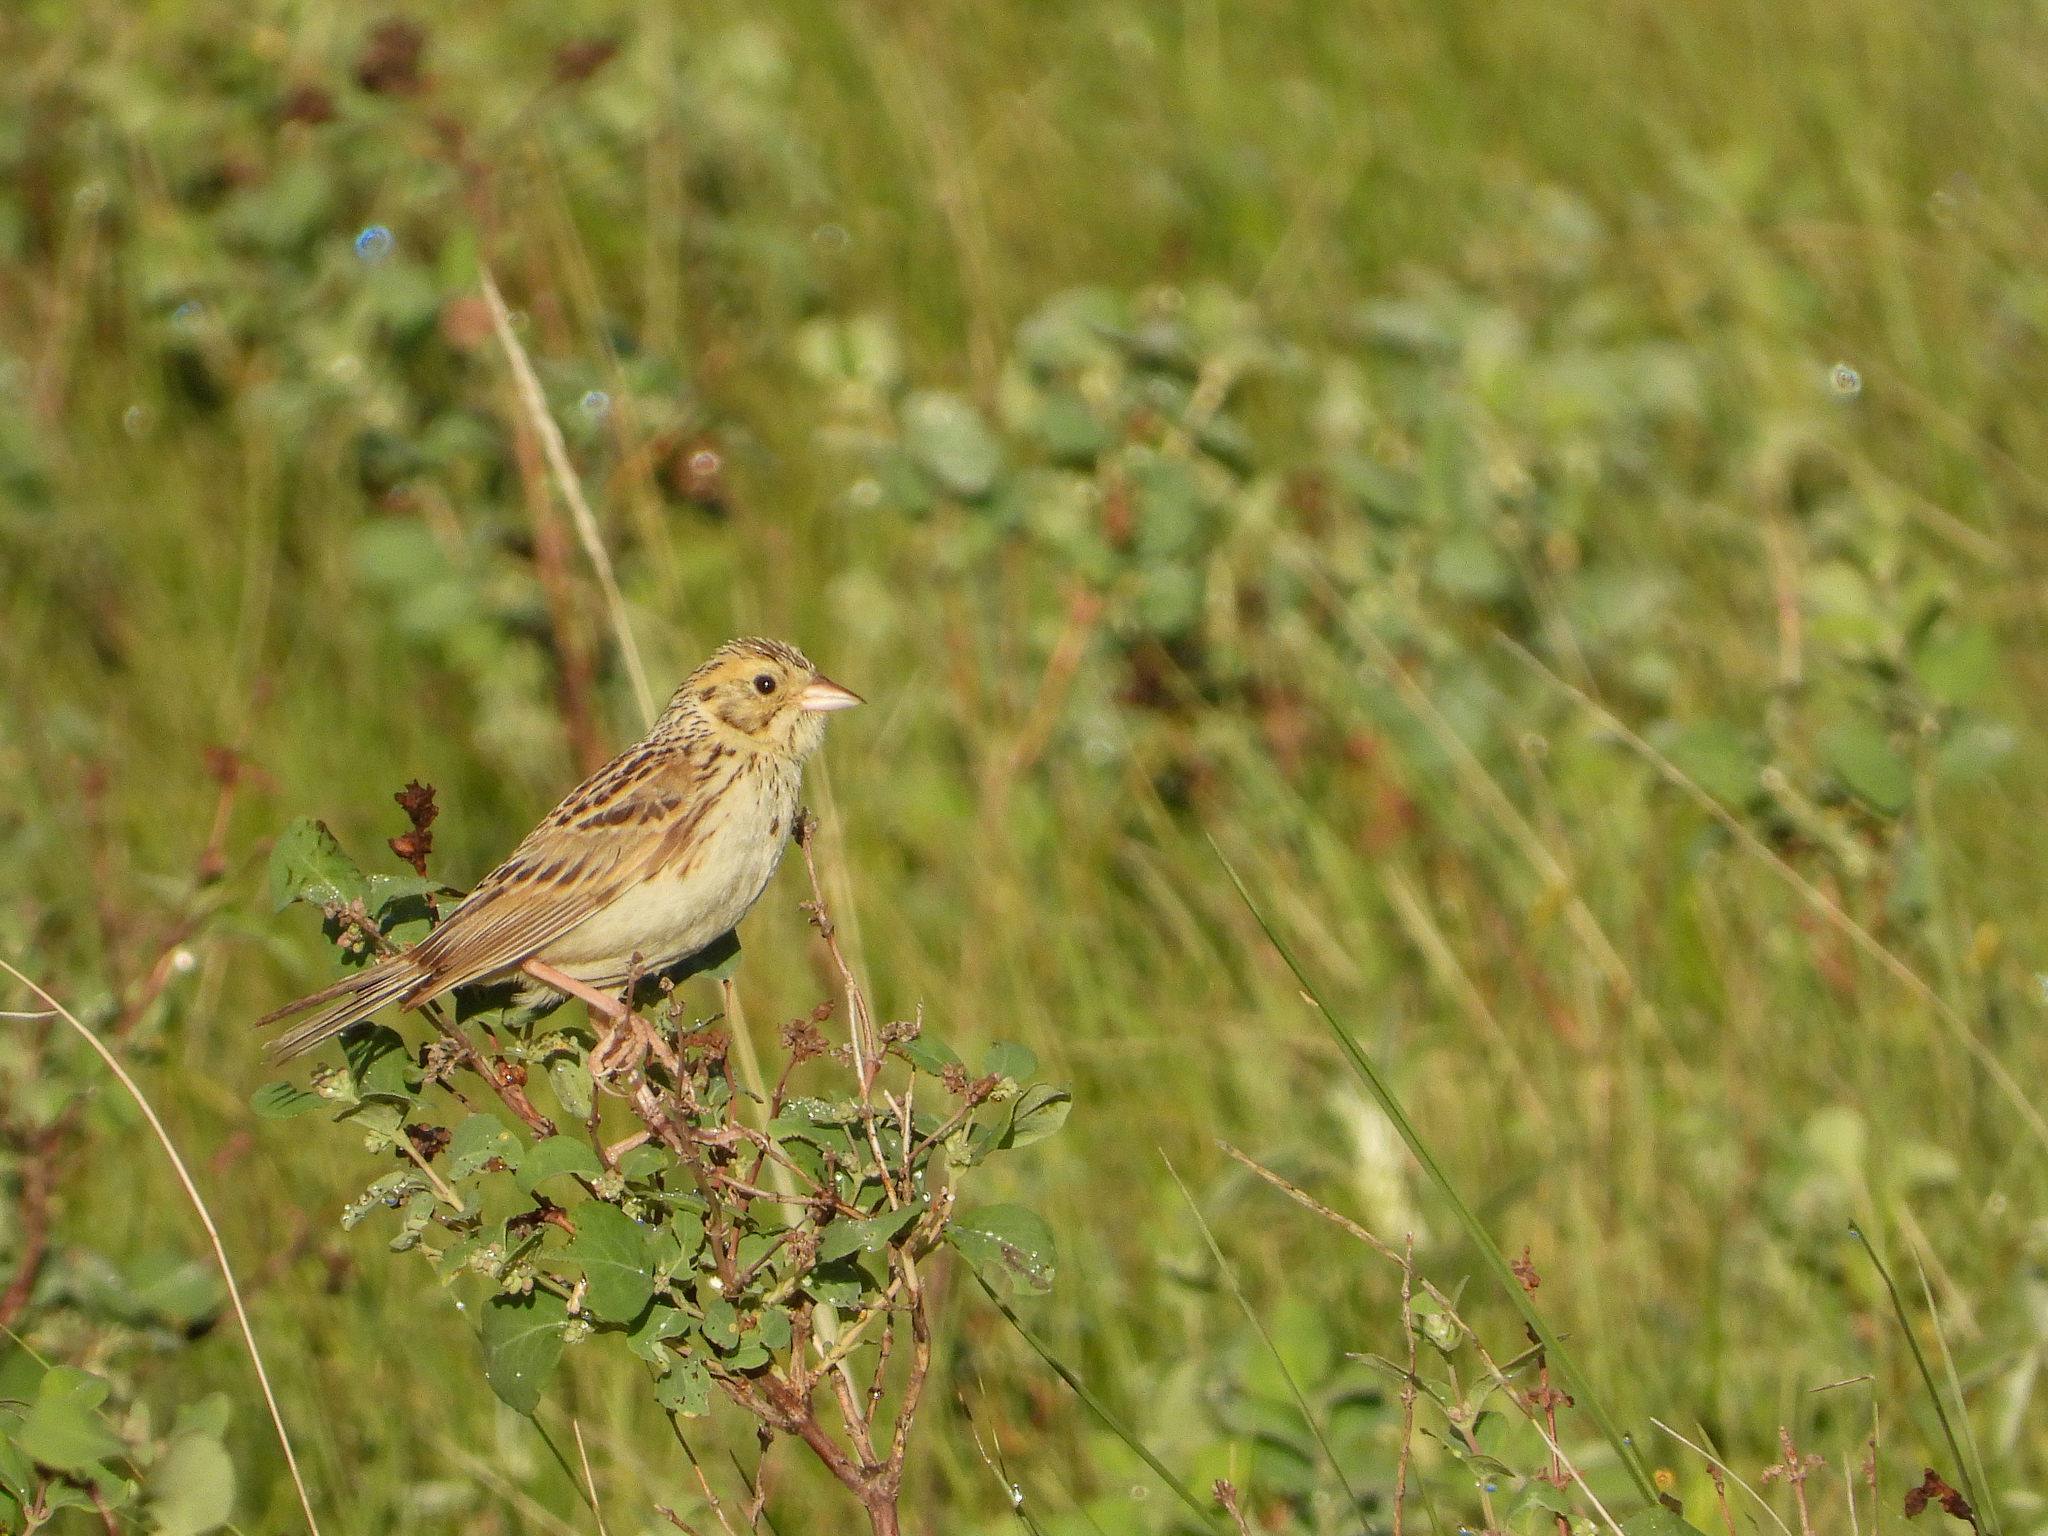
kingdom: Animalia
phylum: Chordata
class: Aves
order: Passeriformes
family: Passerellidae
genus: Centronyx
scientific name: Centronyx bairdii
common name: Baird's sparrow
